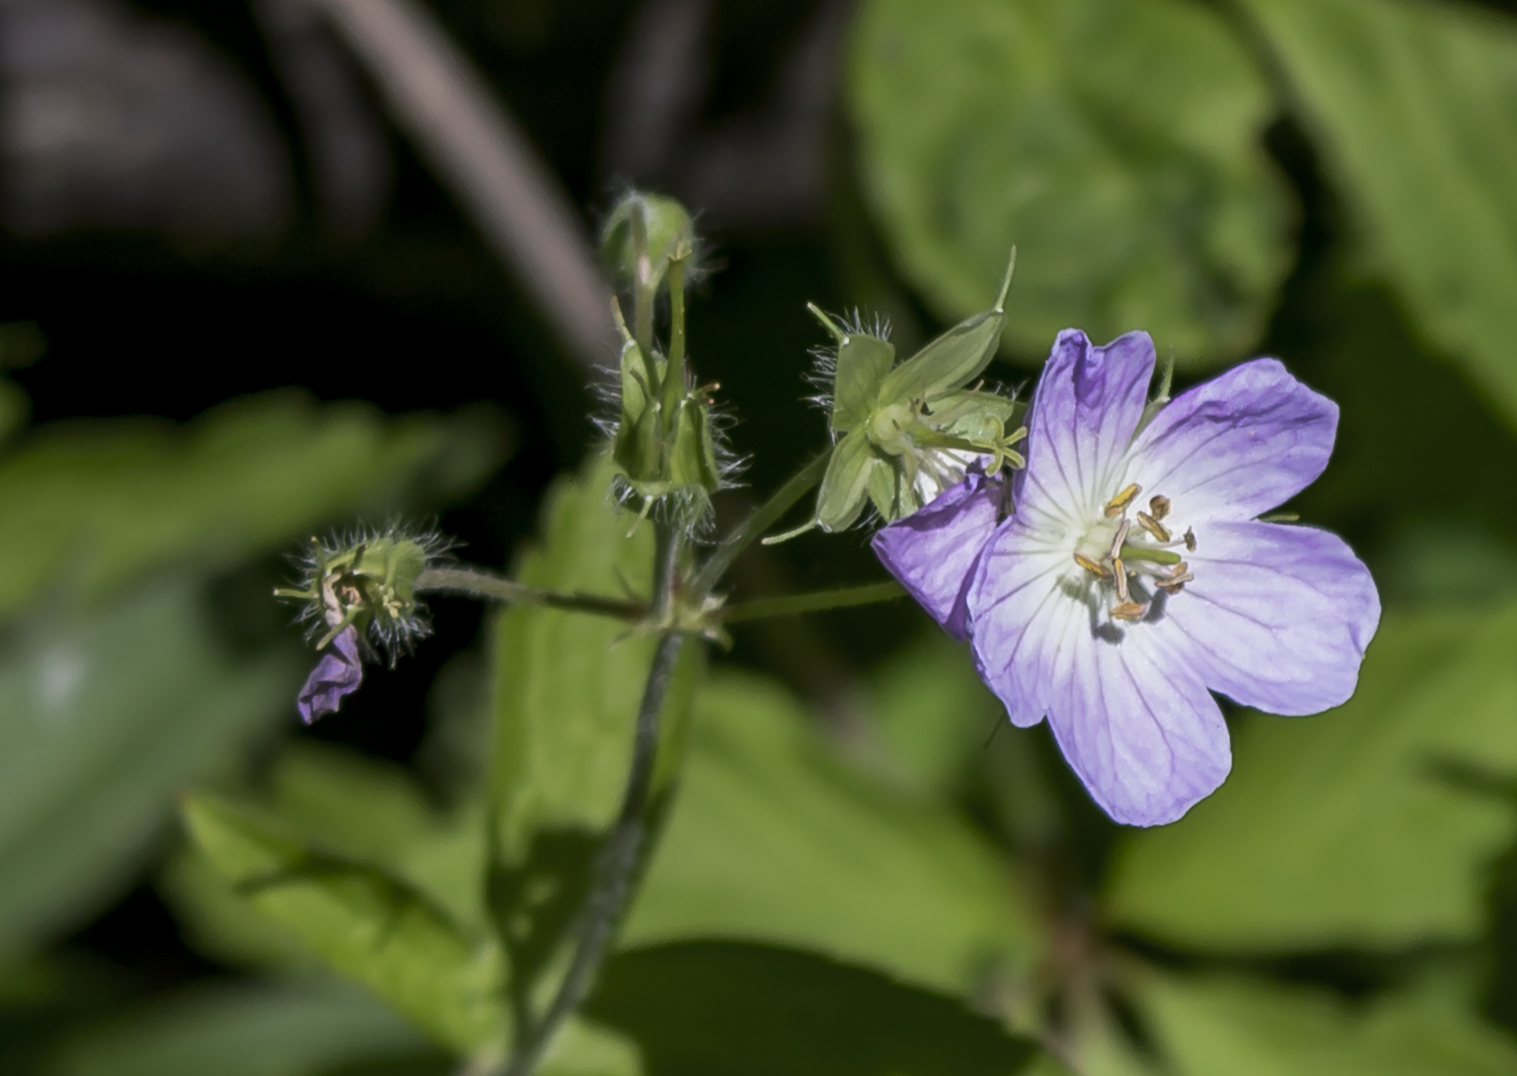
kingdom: Plantae
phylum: Tracheophyta
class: Magnoliopsida
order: Geraniales
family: Geraniaceae
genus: Geranium
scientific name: Geranium maculatum
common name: Spotted geranium
